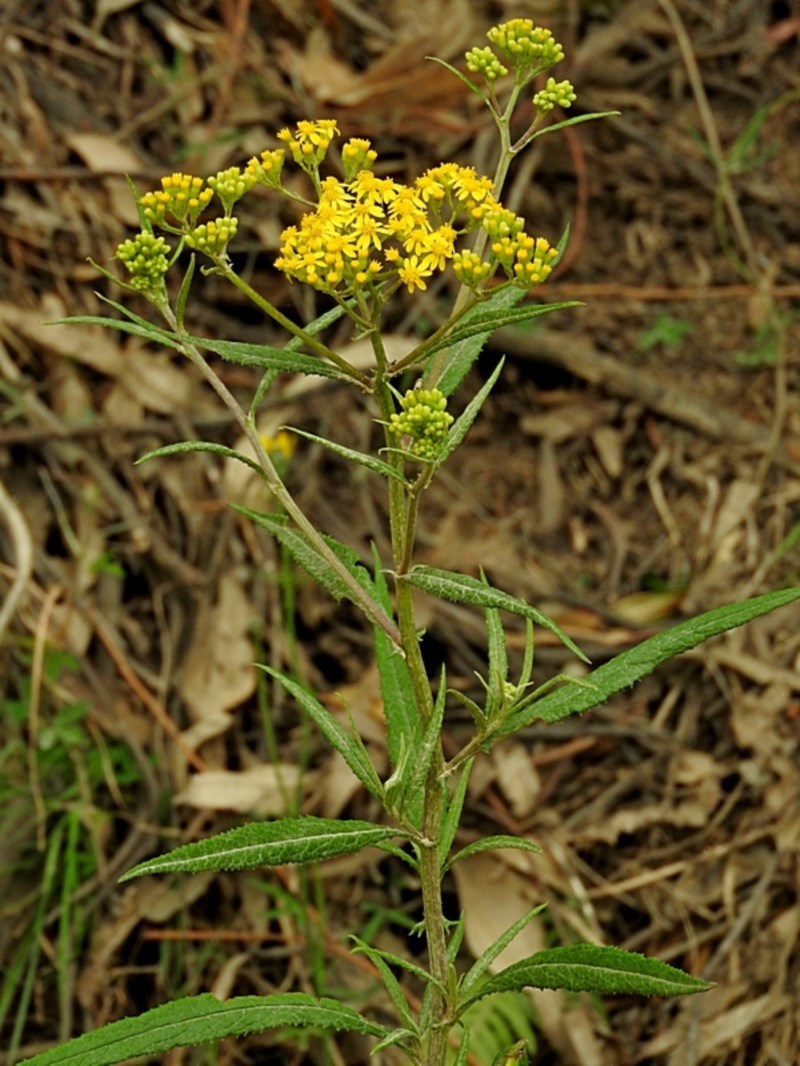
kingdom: Plantae
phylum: Tracheophyta
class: Magnoliopsida
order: Asterales
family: Asteraceae
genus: Senecio
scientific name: Senecio linearifolius
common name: Fireweed groundsel
